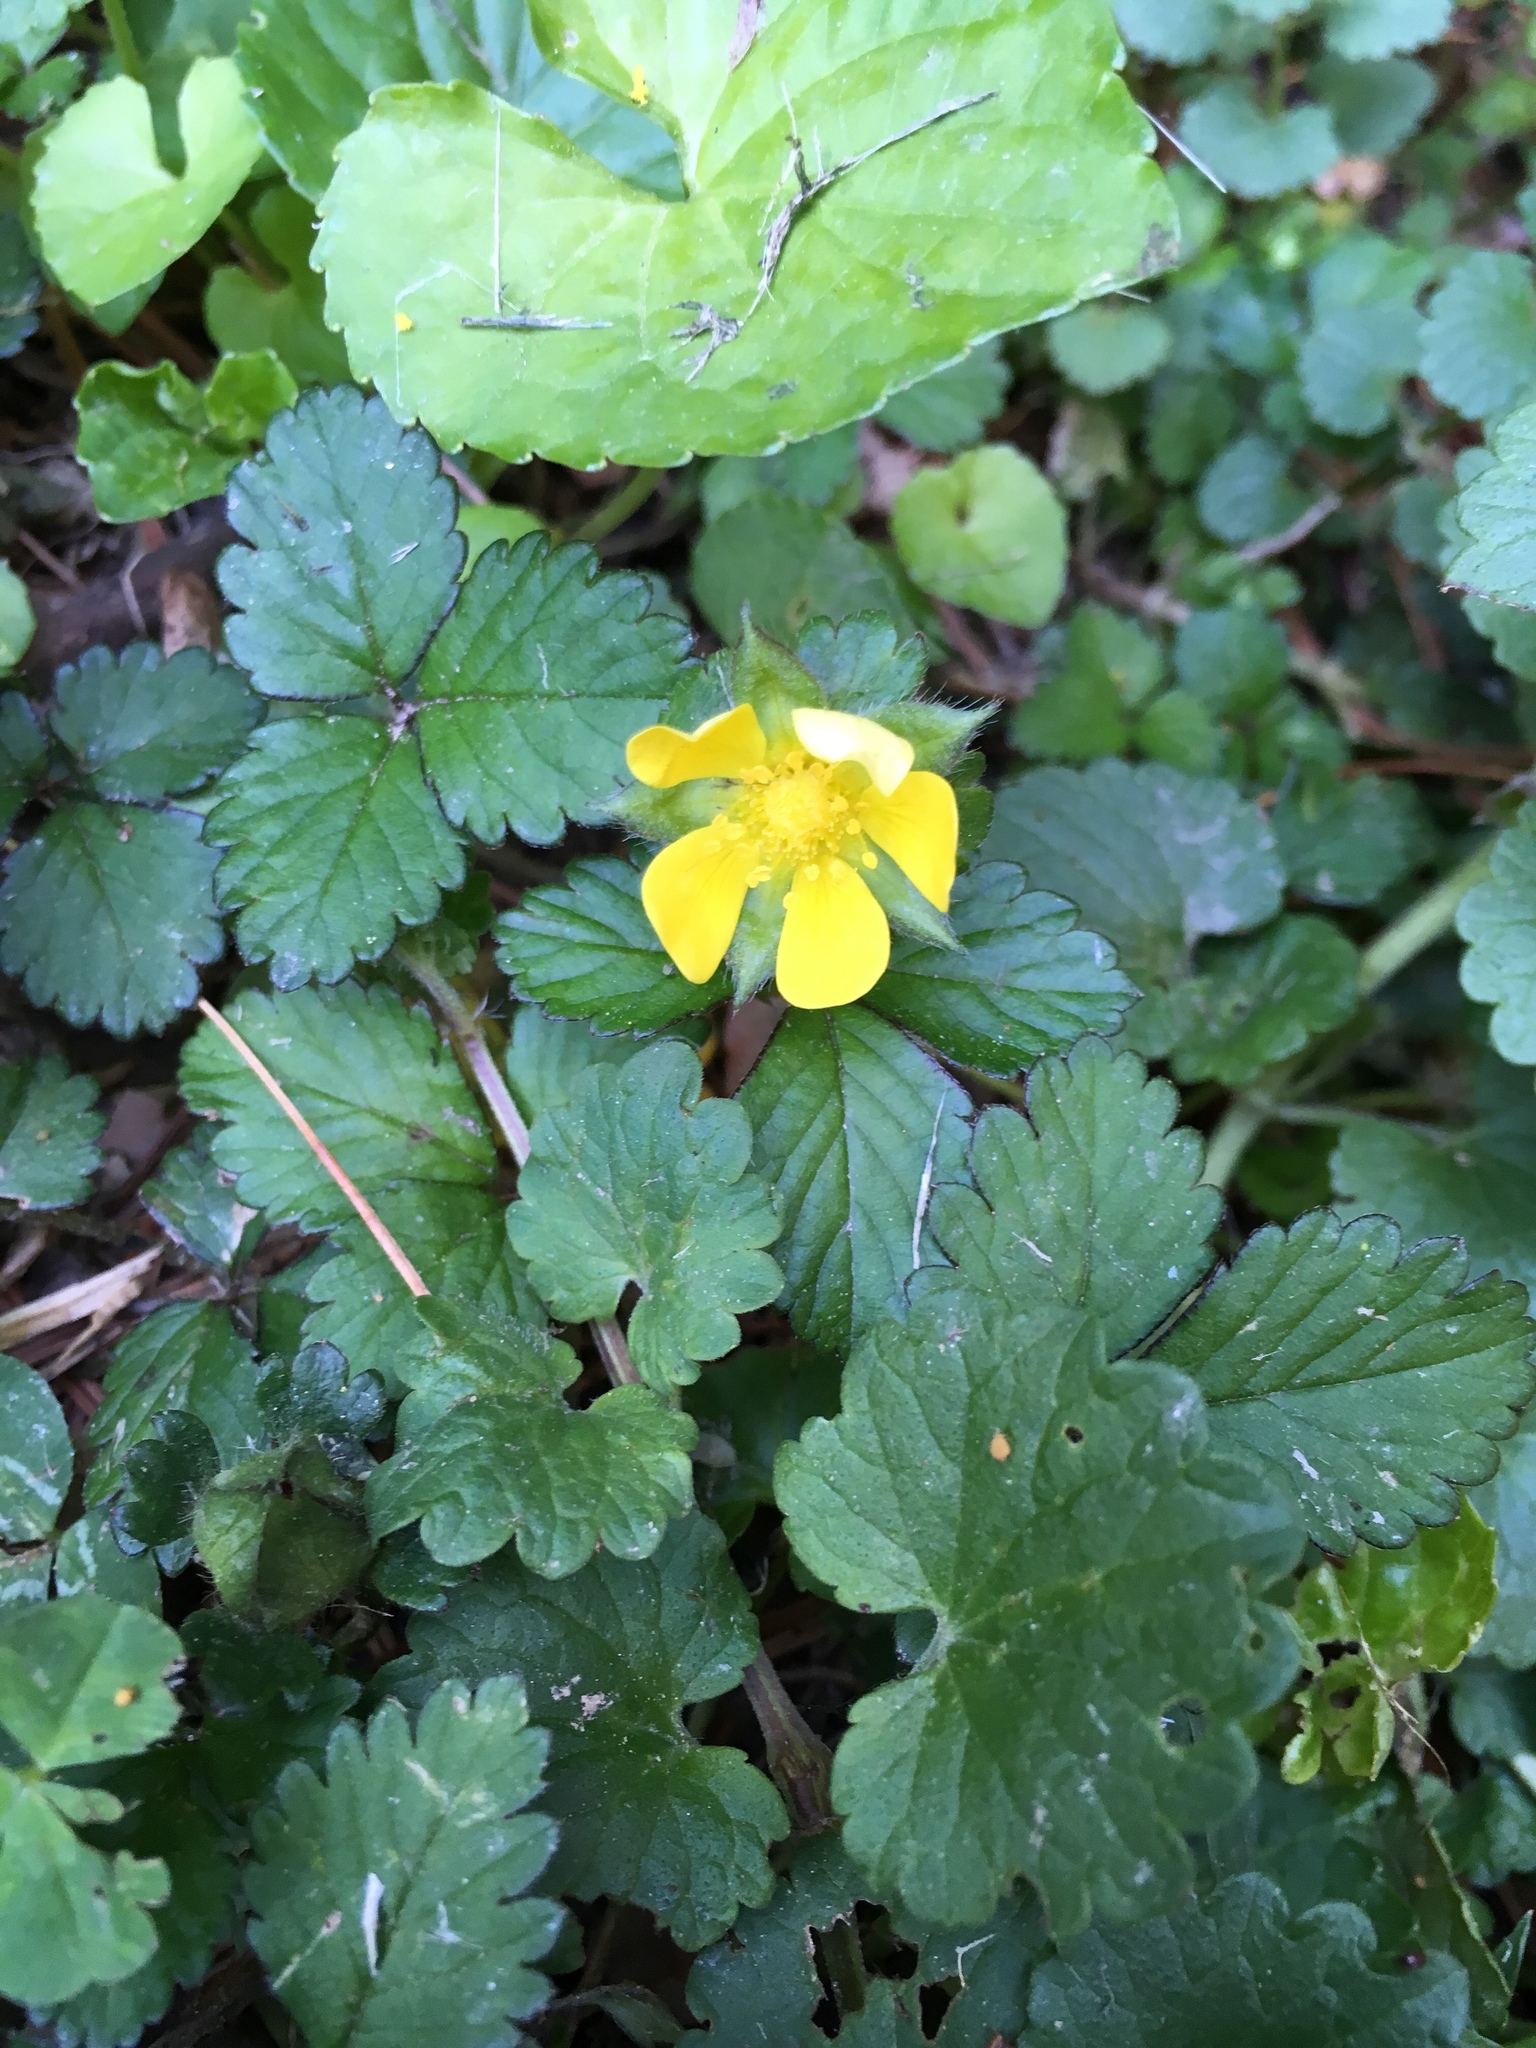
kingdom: Plantae
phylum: Tracheophyta
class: Magnoliopsida
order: Rosales
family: Rosaceae
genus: Potentilla
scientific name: Potentilla indica
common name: Yellow-flowered strawberry
